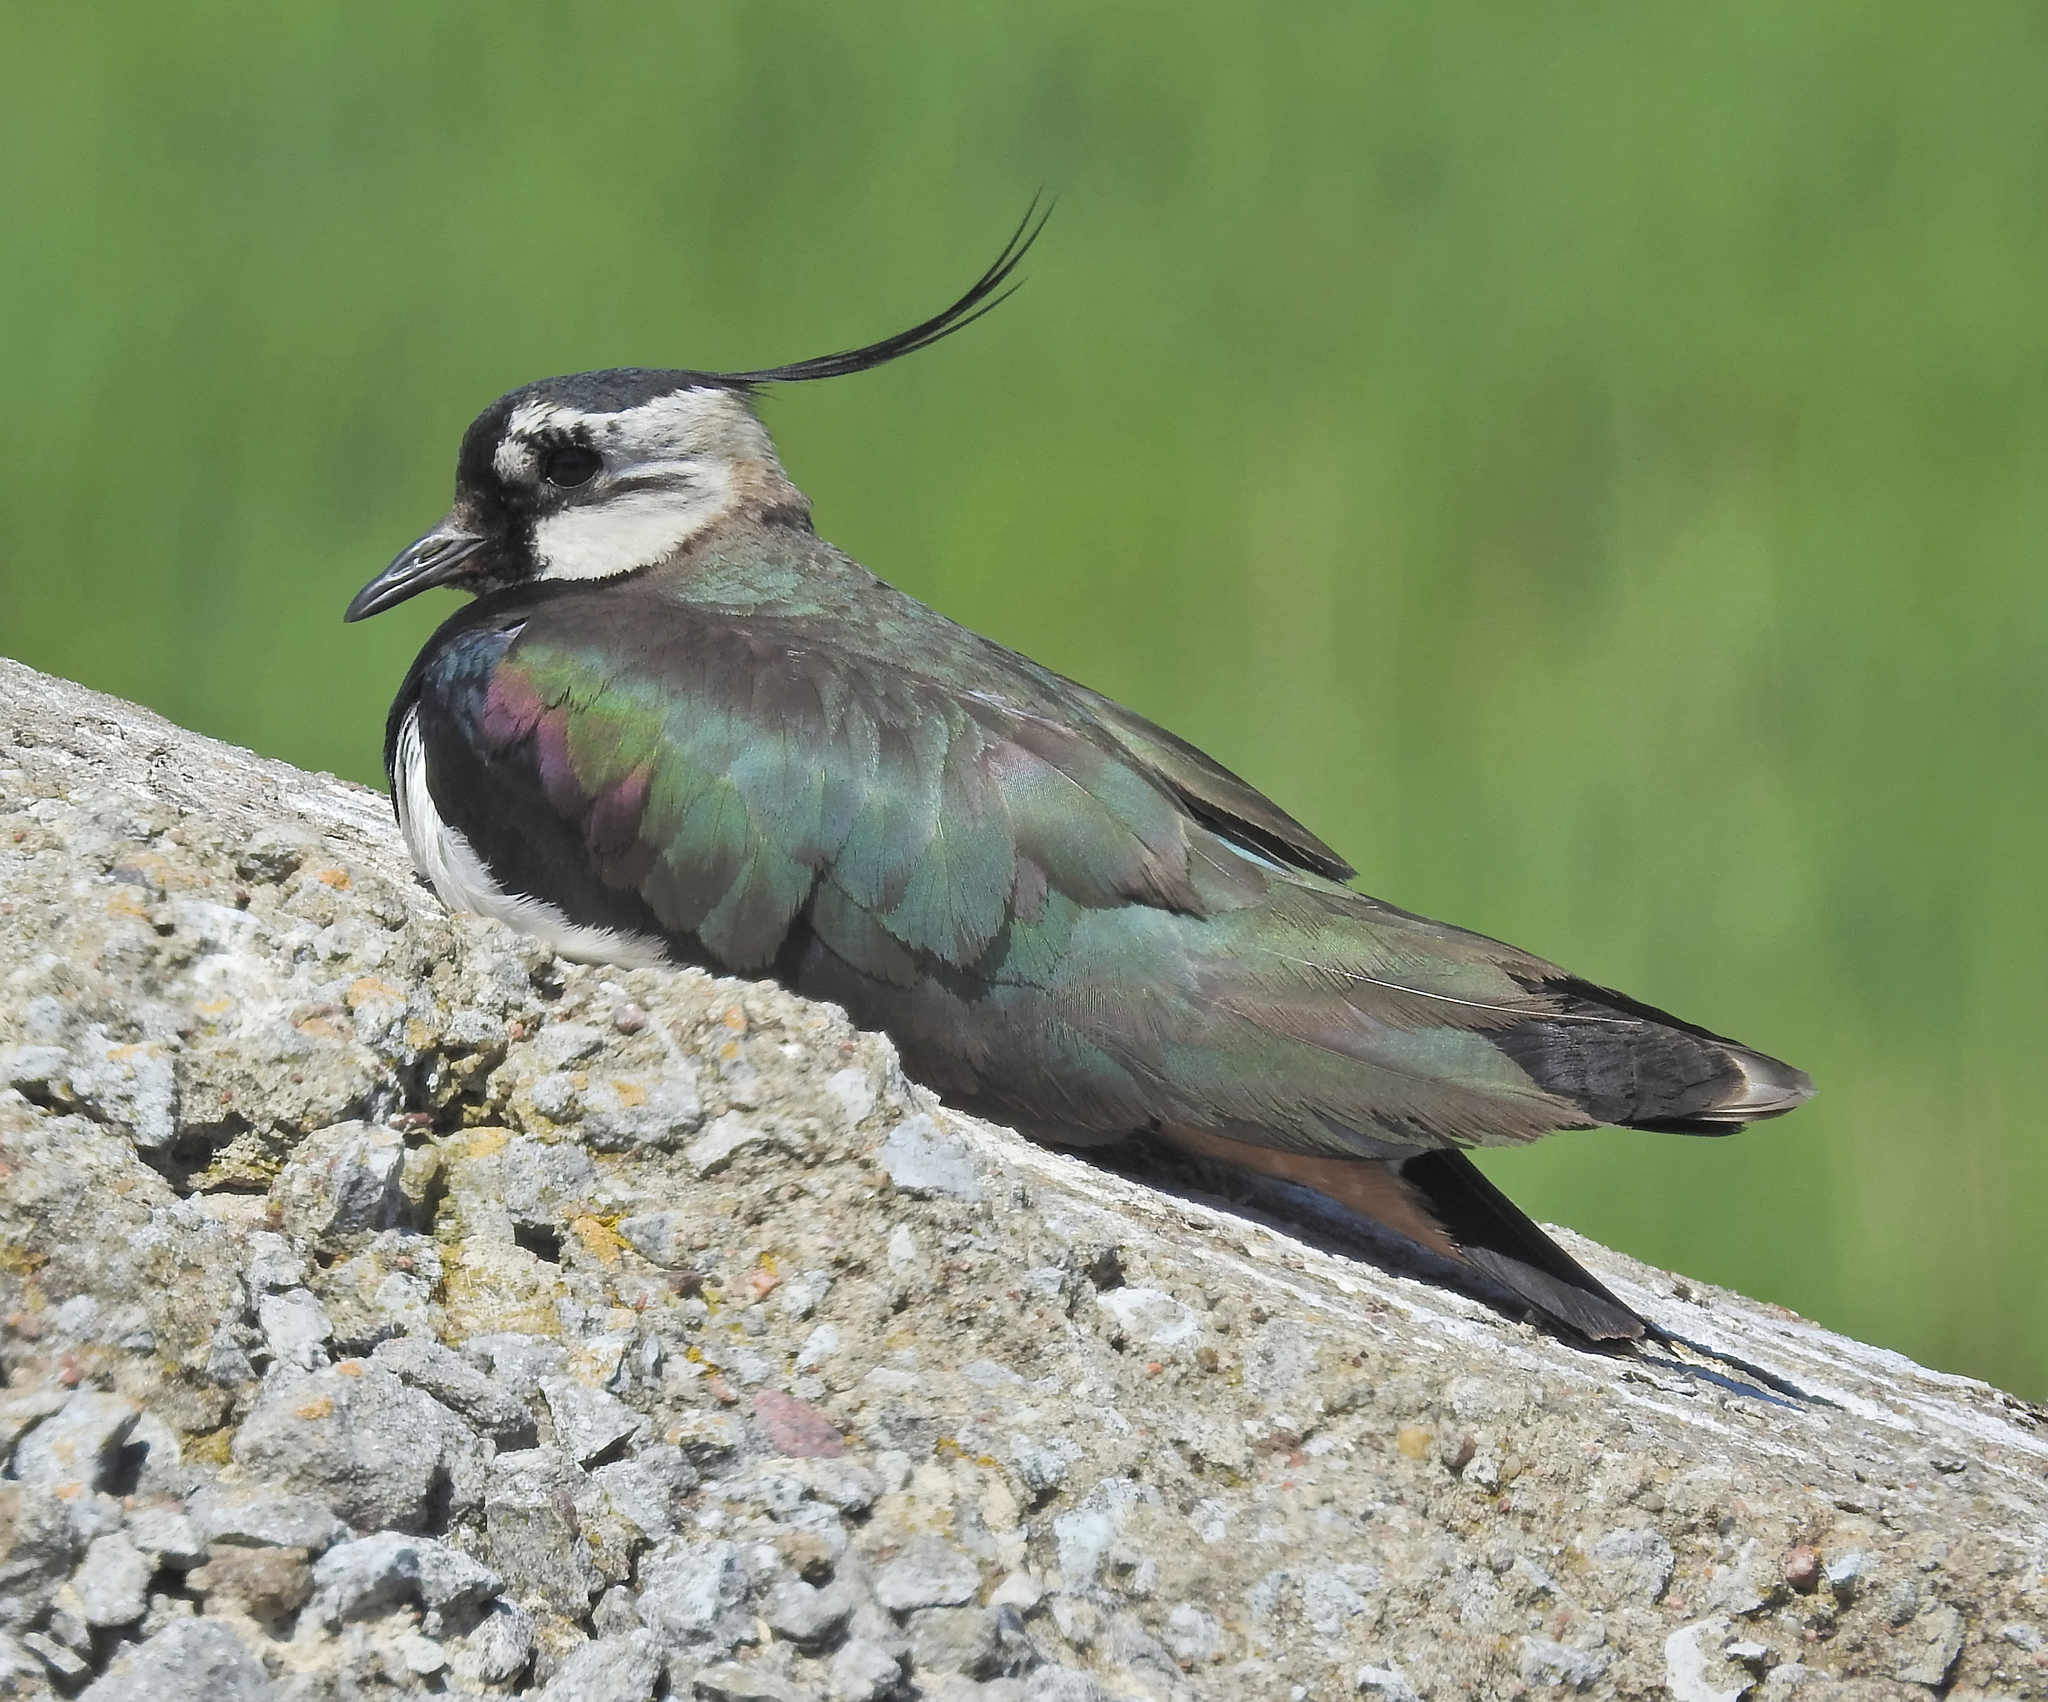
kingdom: Animalia
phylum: Chordata
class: Aves
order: Charadriiformes
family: Charadriidae
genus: Vanellus
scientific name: Vanellus vanellus
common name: Northern lapwing
